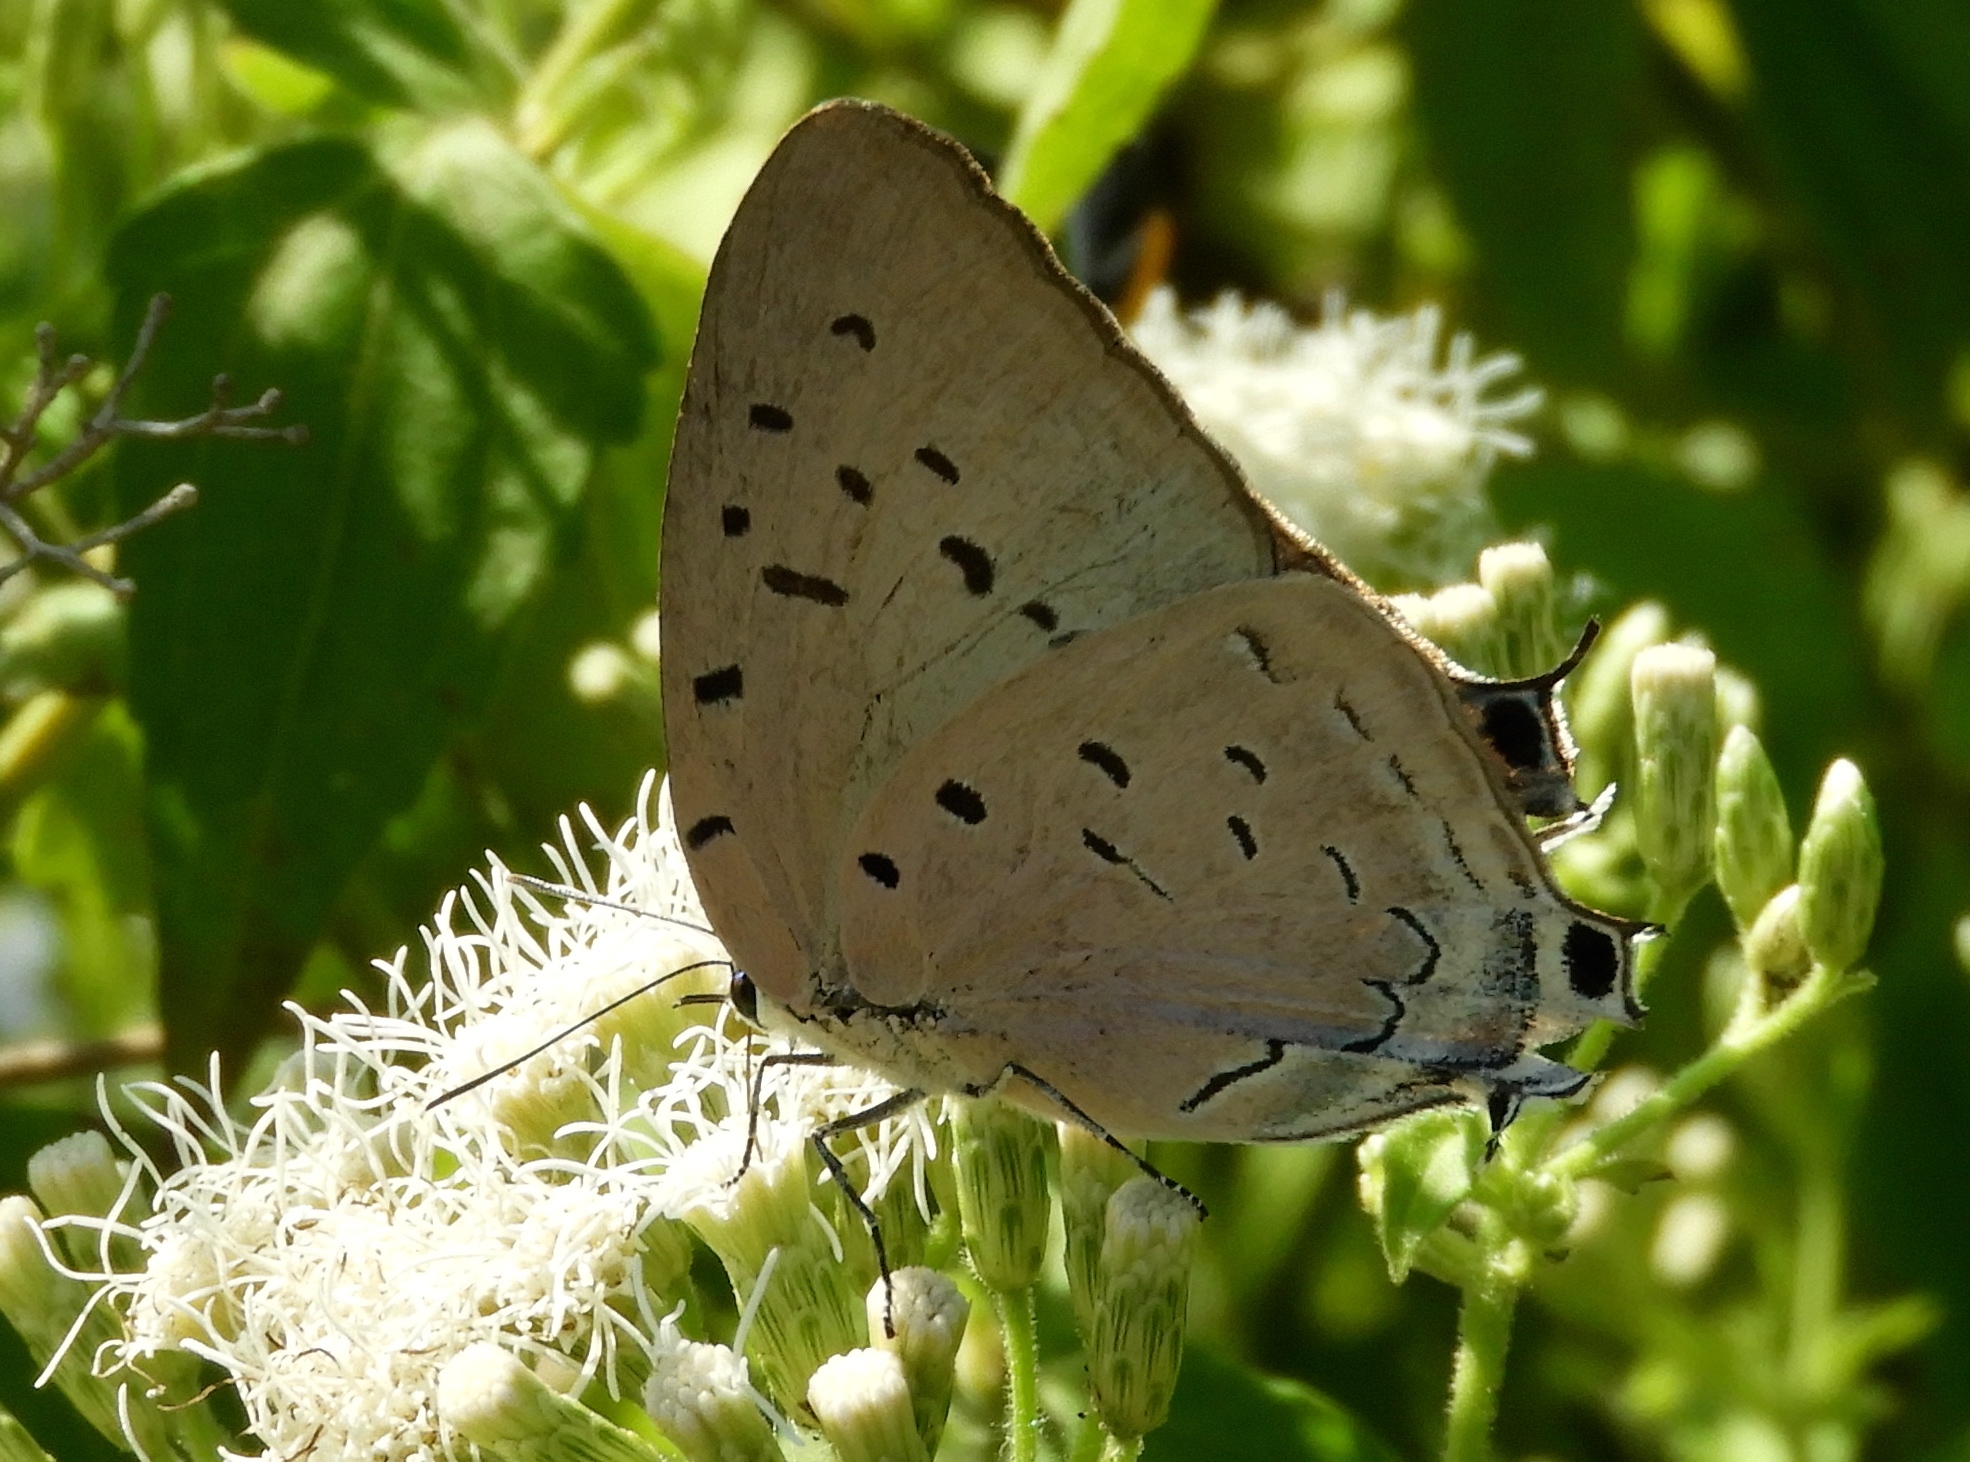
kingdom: Animalia
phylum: Arthropoda
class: Insecta
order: Lepidoptera
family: Lycaenidae
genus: Pseudolycaena
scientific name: Pseudolycaena damo
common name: Sky-blue hairstreak
